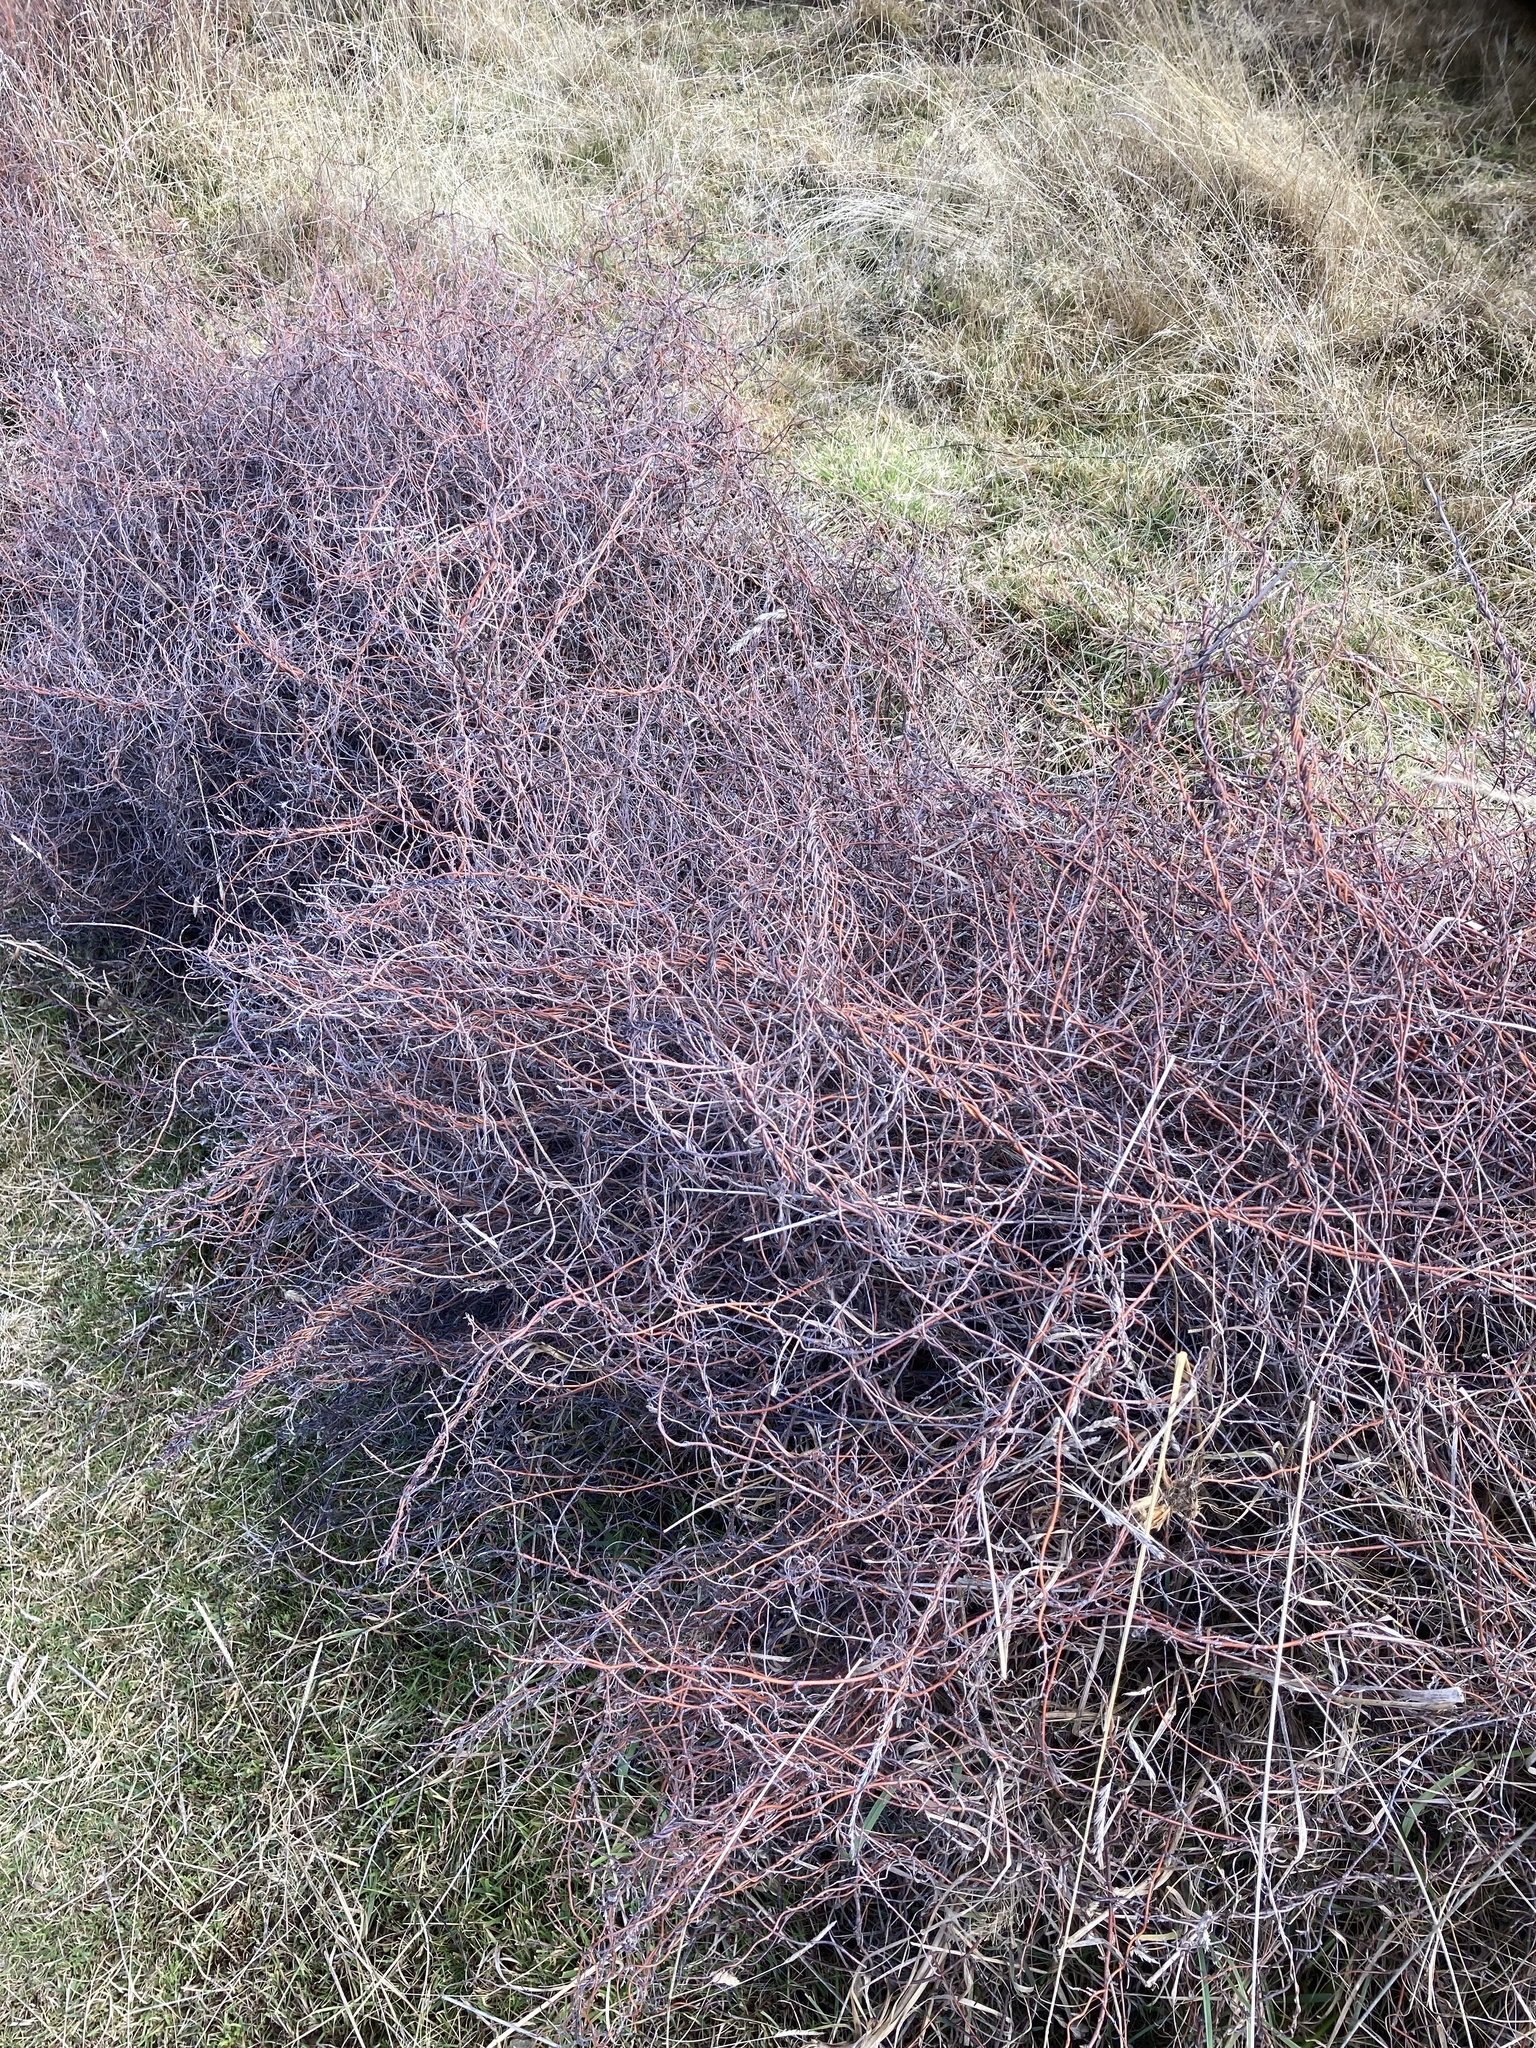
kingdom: Plantae
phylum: Tracheophyta
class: Magnoliopsida
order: Caryophyllales
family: Polygonaceae
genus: Muehlenbeckia
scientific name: Muehlenbeckia complexa
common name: Wireplant
